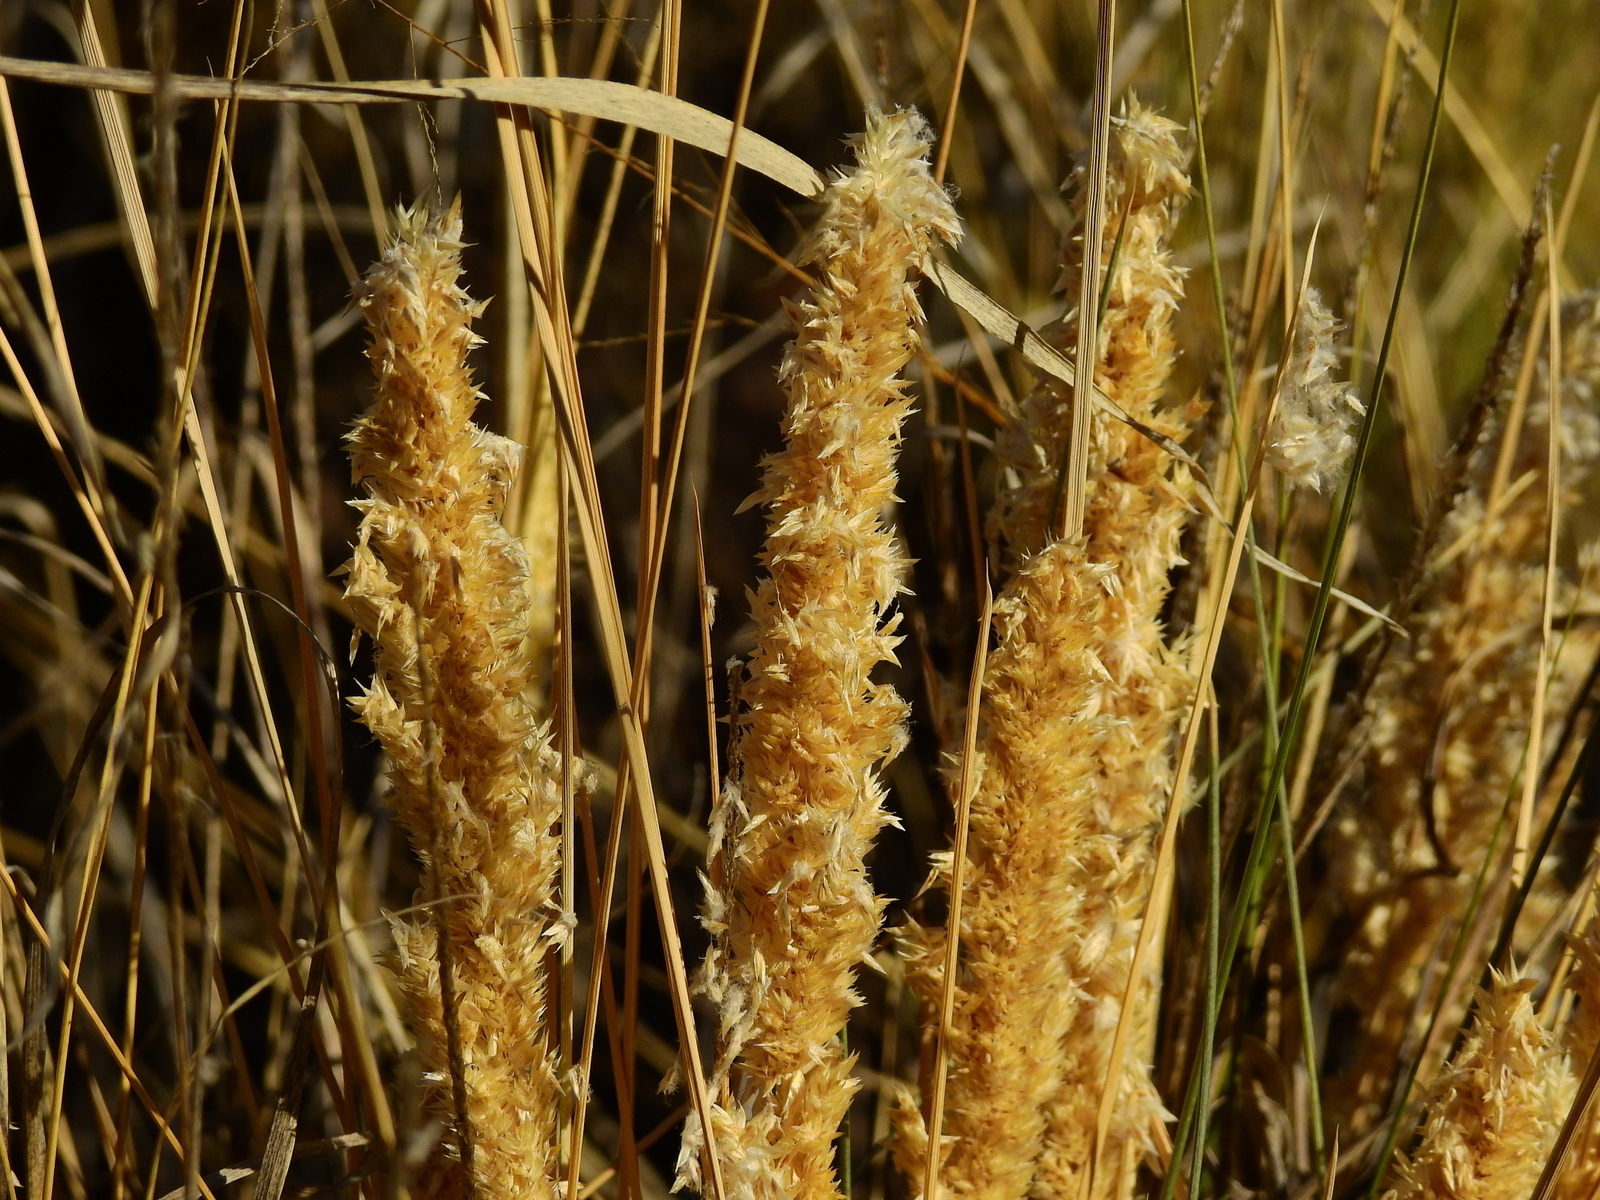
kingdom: Plantae
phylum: Tracheophyta
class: Liliopsida
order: Poales
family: Poaceae
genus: Poa
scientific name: Poa ligularis
